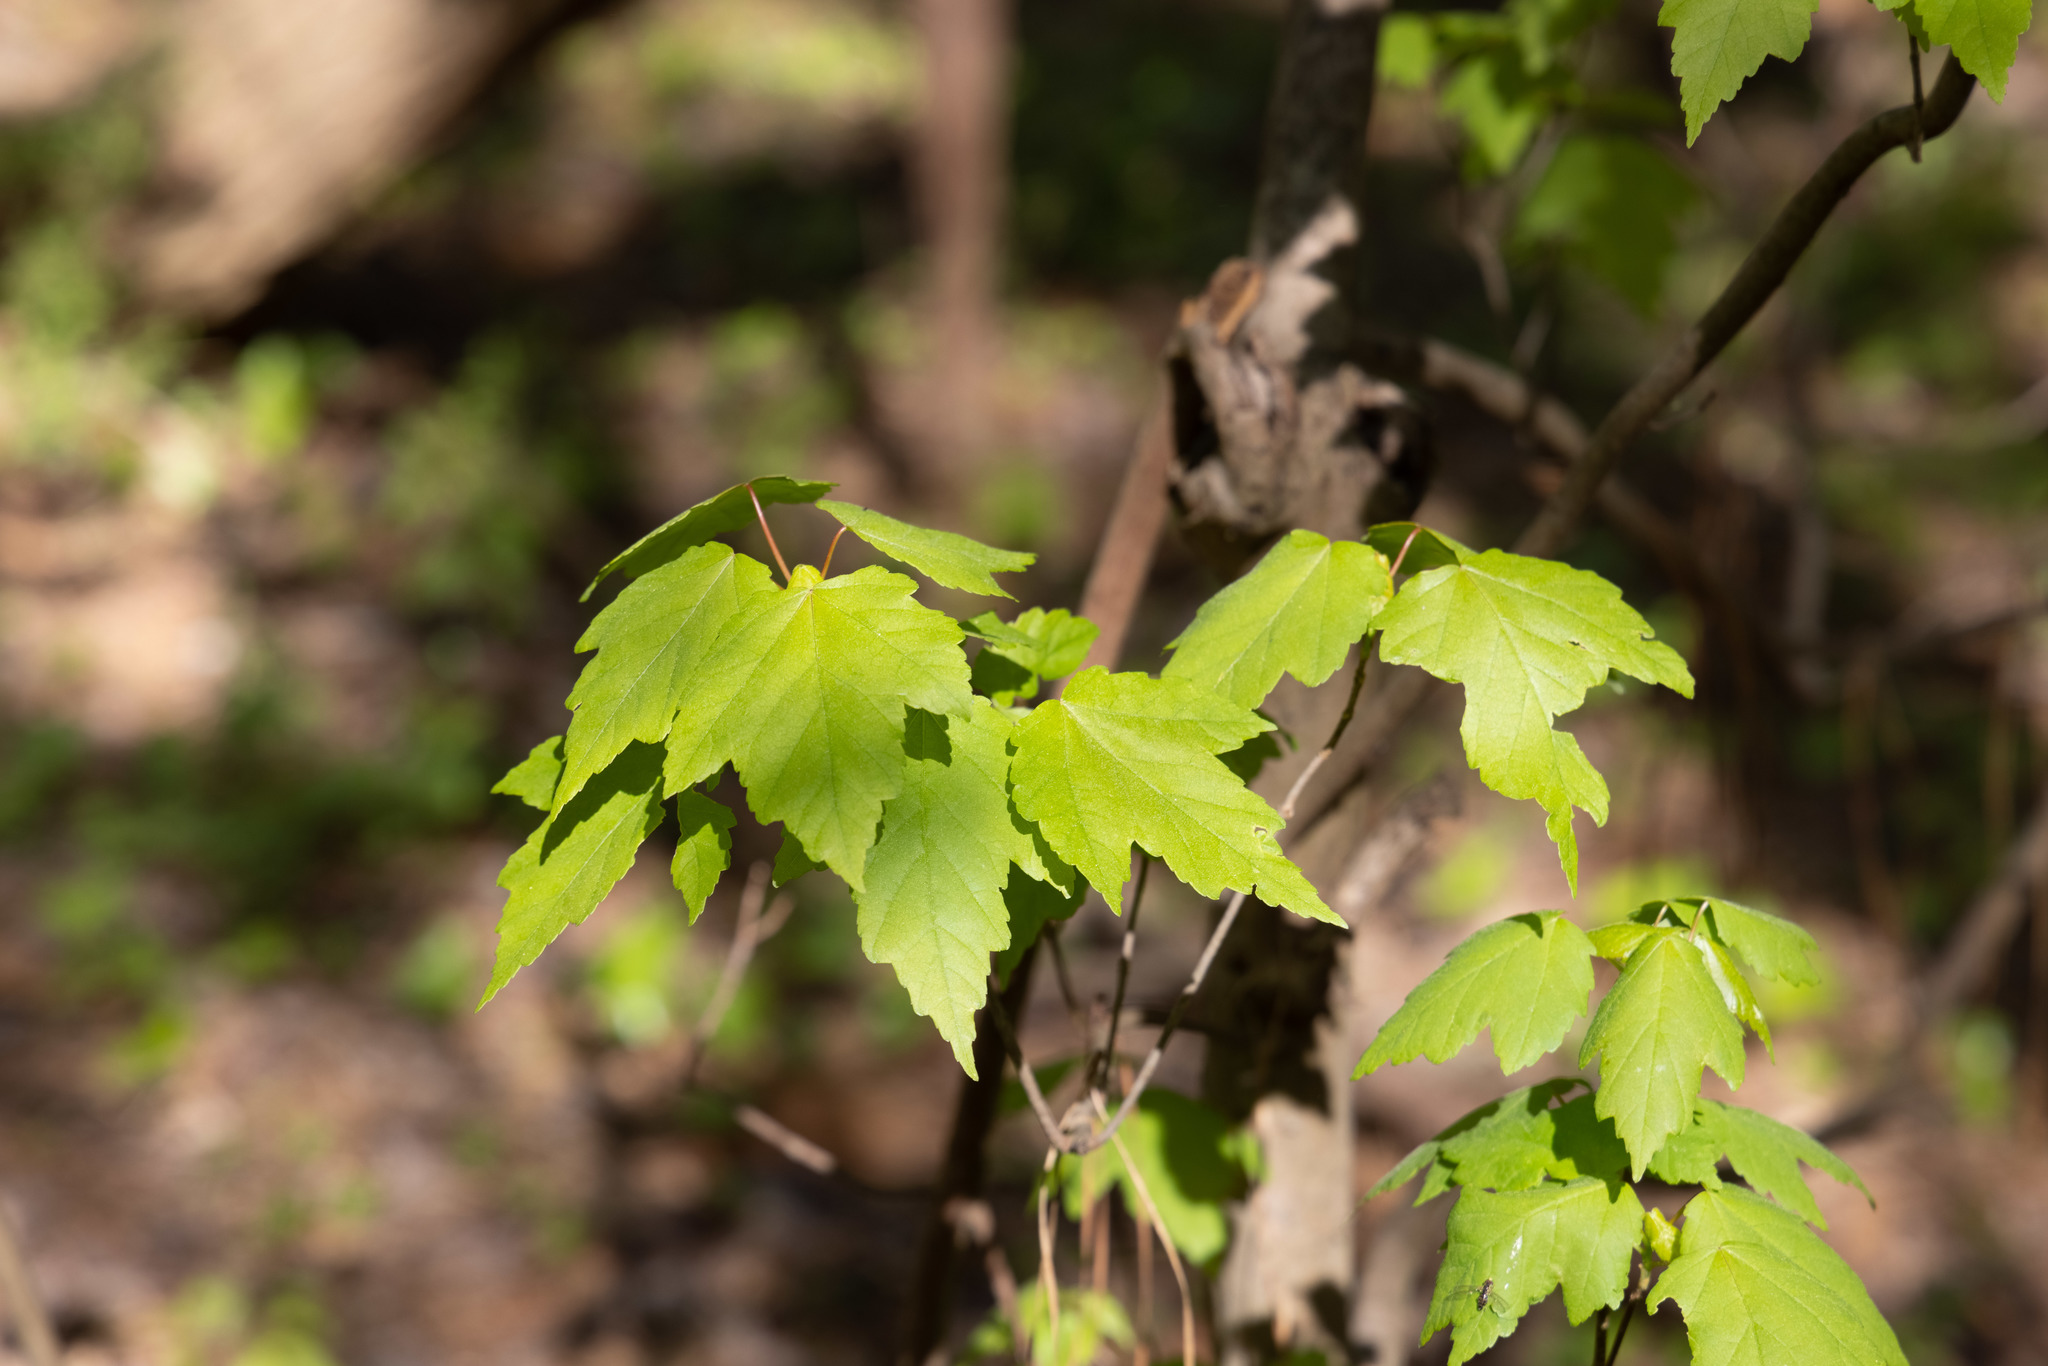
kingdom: Plantae
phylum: Tracheophyta
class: Magnoliopsida
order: Sapindales
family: Sapindaceae
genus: Acer
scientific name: Acer rubrum
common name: Red maple
